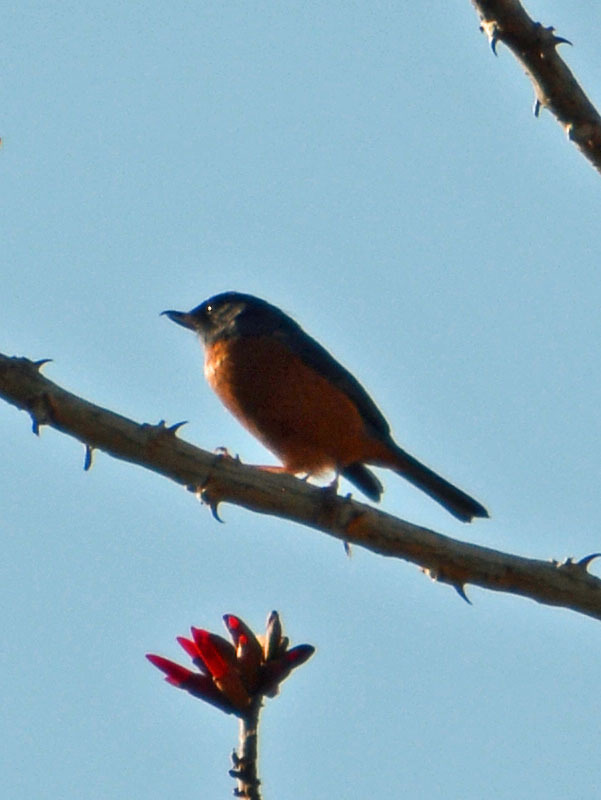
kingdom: Animalia
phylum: Chordata
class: Aves
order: Passeriformes
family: Thraupidae
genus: Diglossa
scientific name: Diglossa baritula
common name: Cinnamon-bellied flowerpiercer
